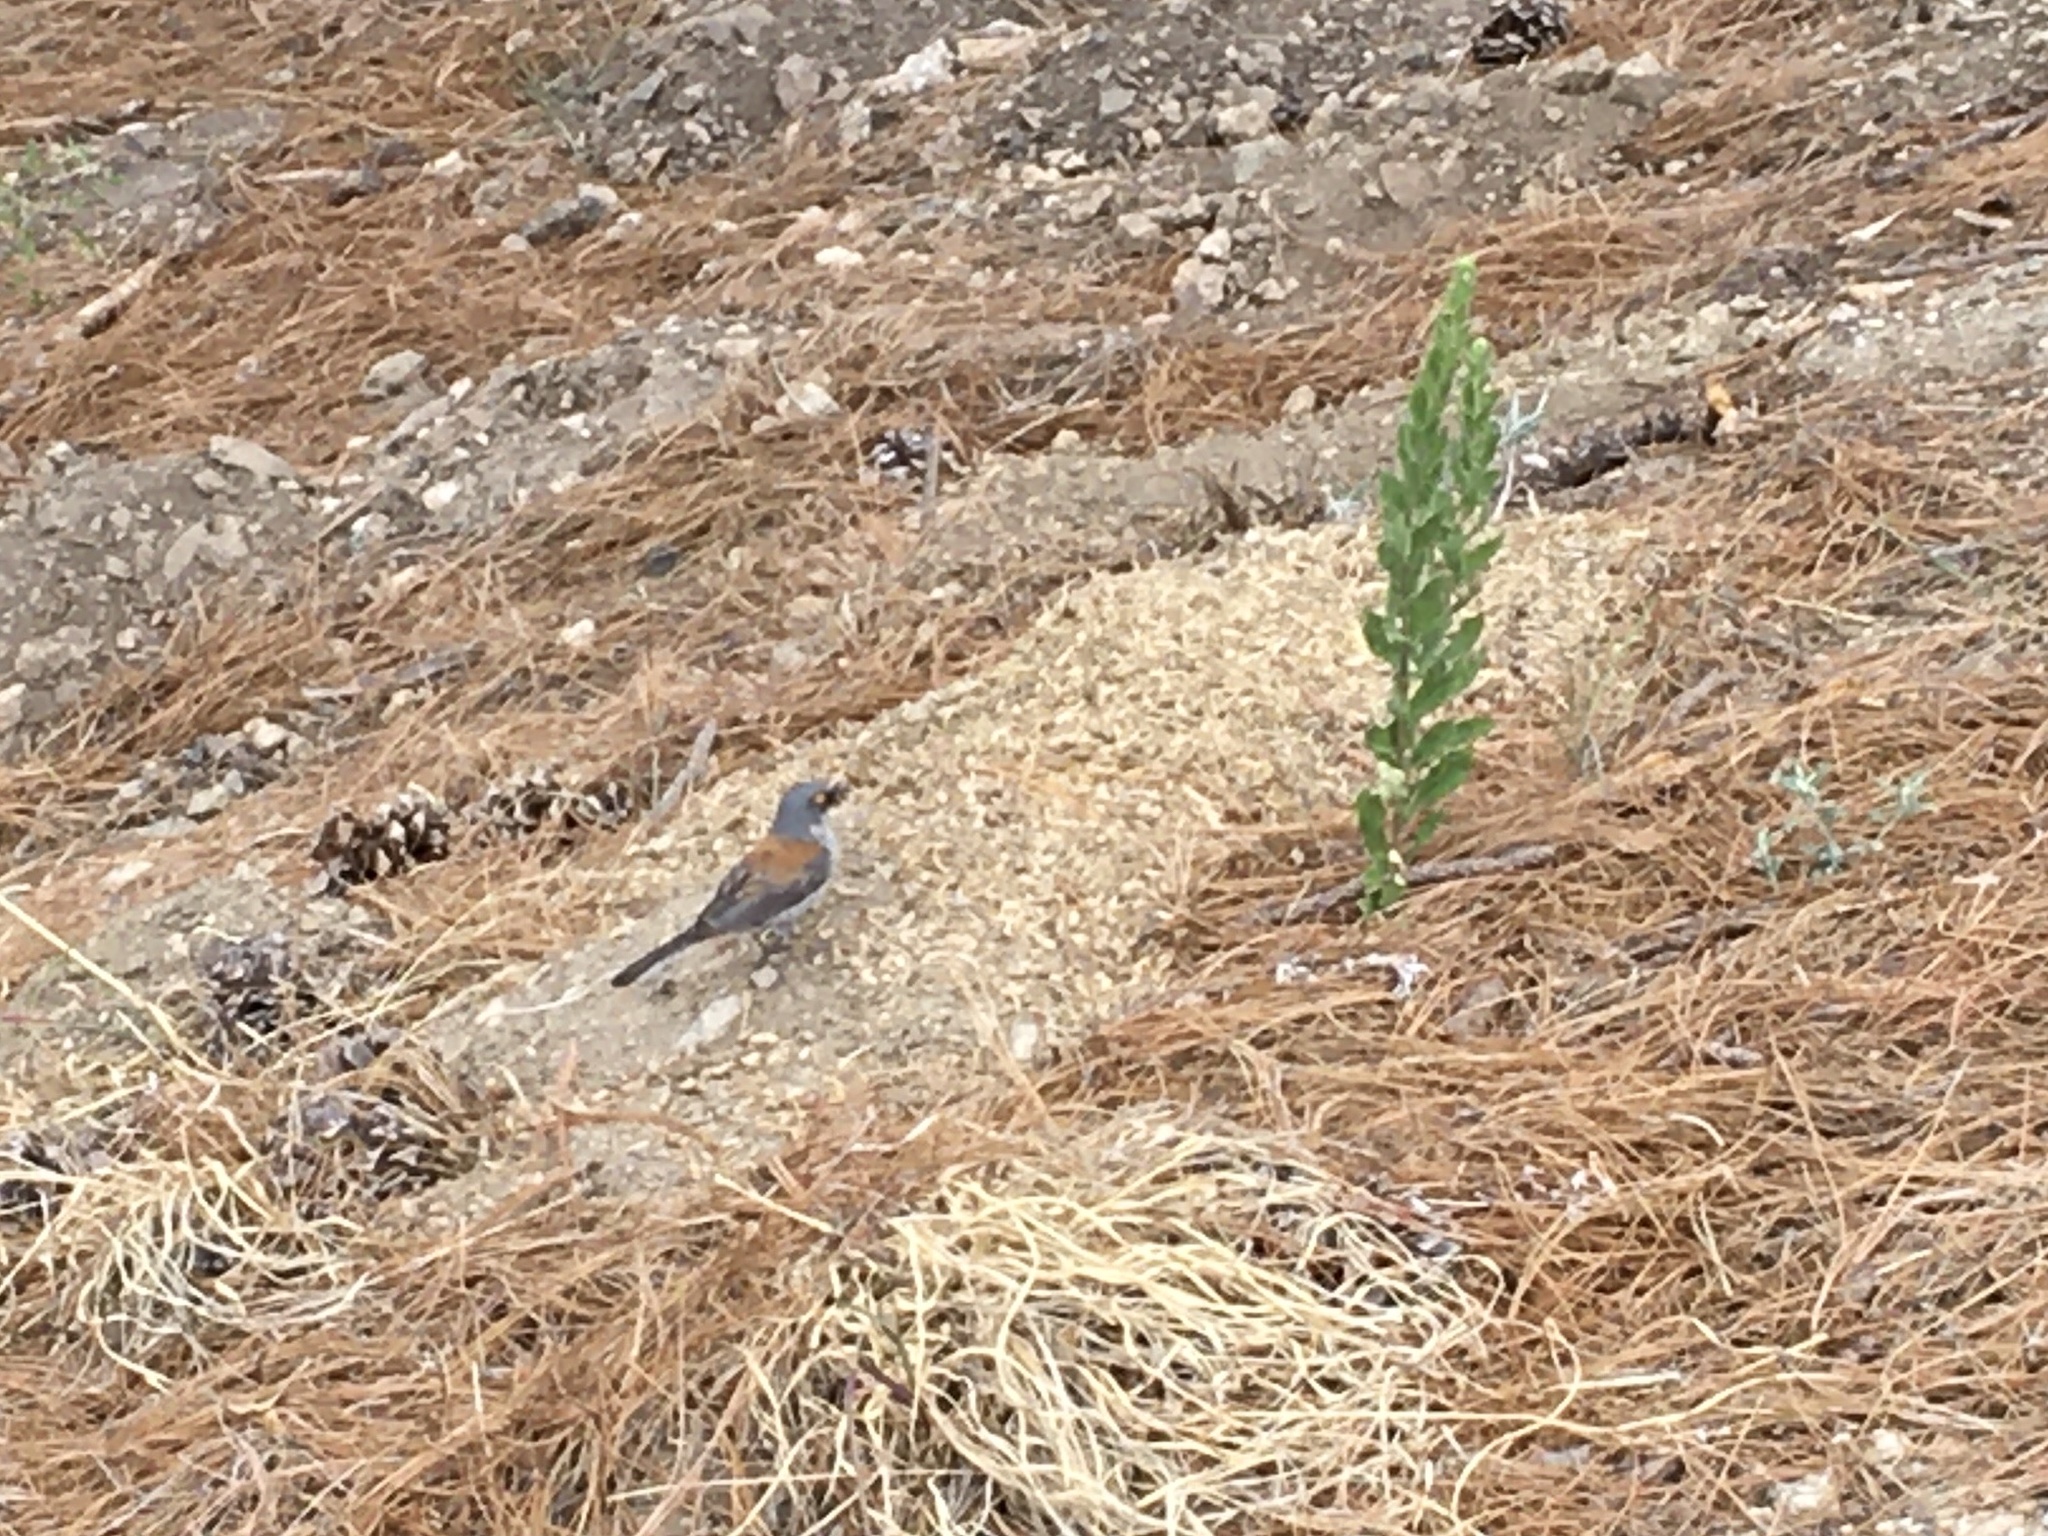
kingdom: Animalia
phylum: Chordata
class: Aves
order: Passeriformes
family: Passerellidae
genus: Junco
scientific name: Junco phaeonotus
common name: Yellow-eyed junco
